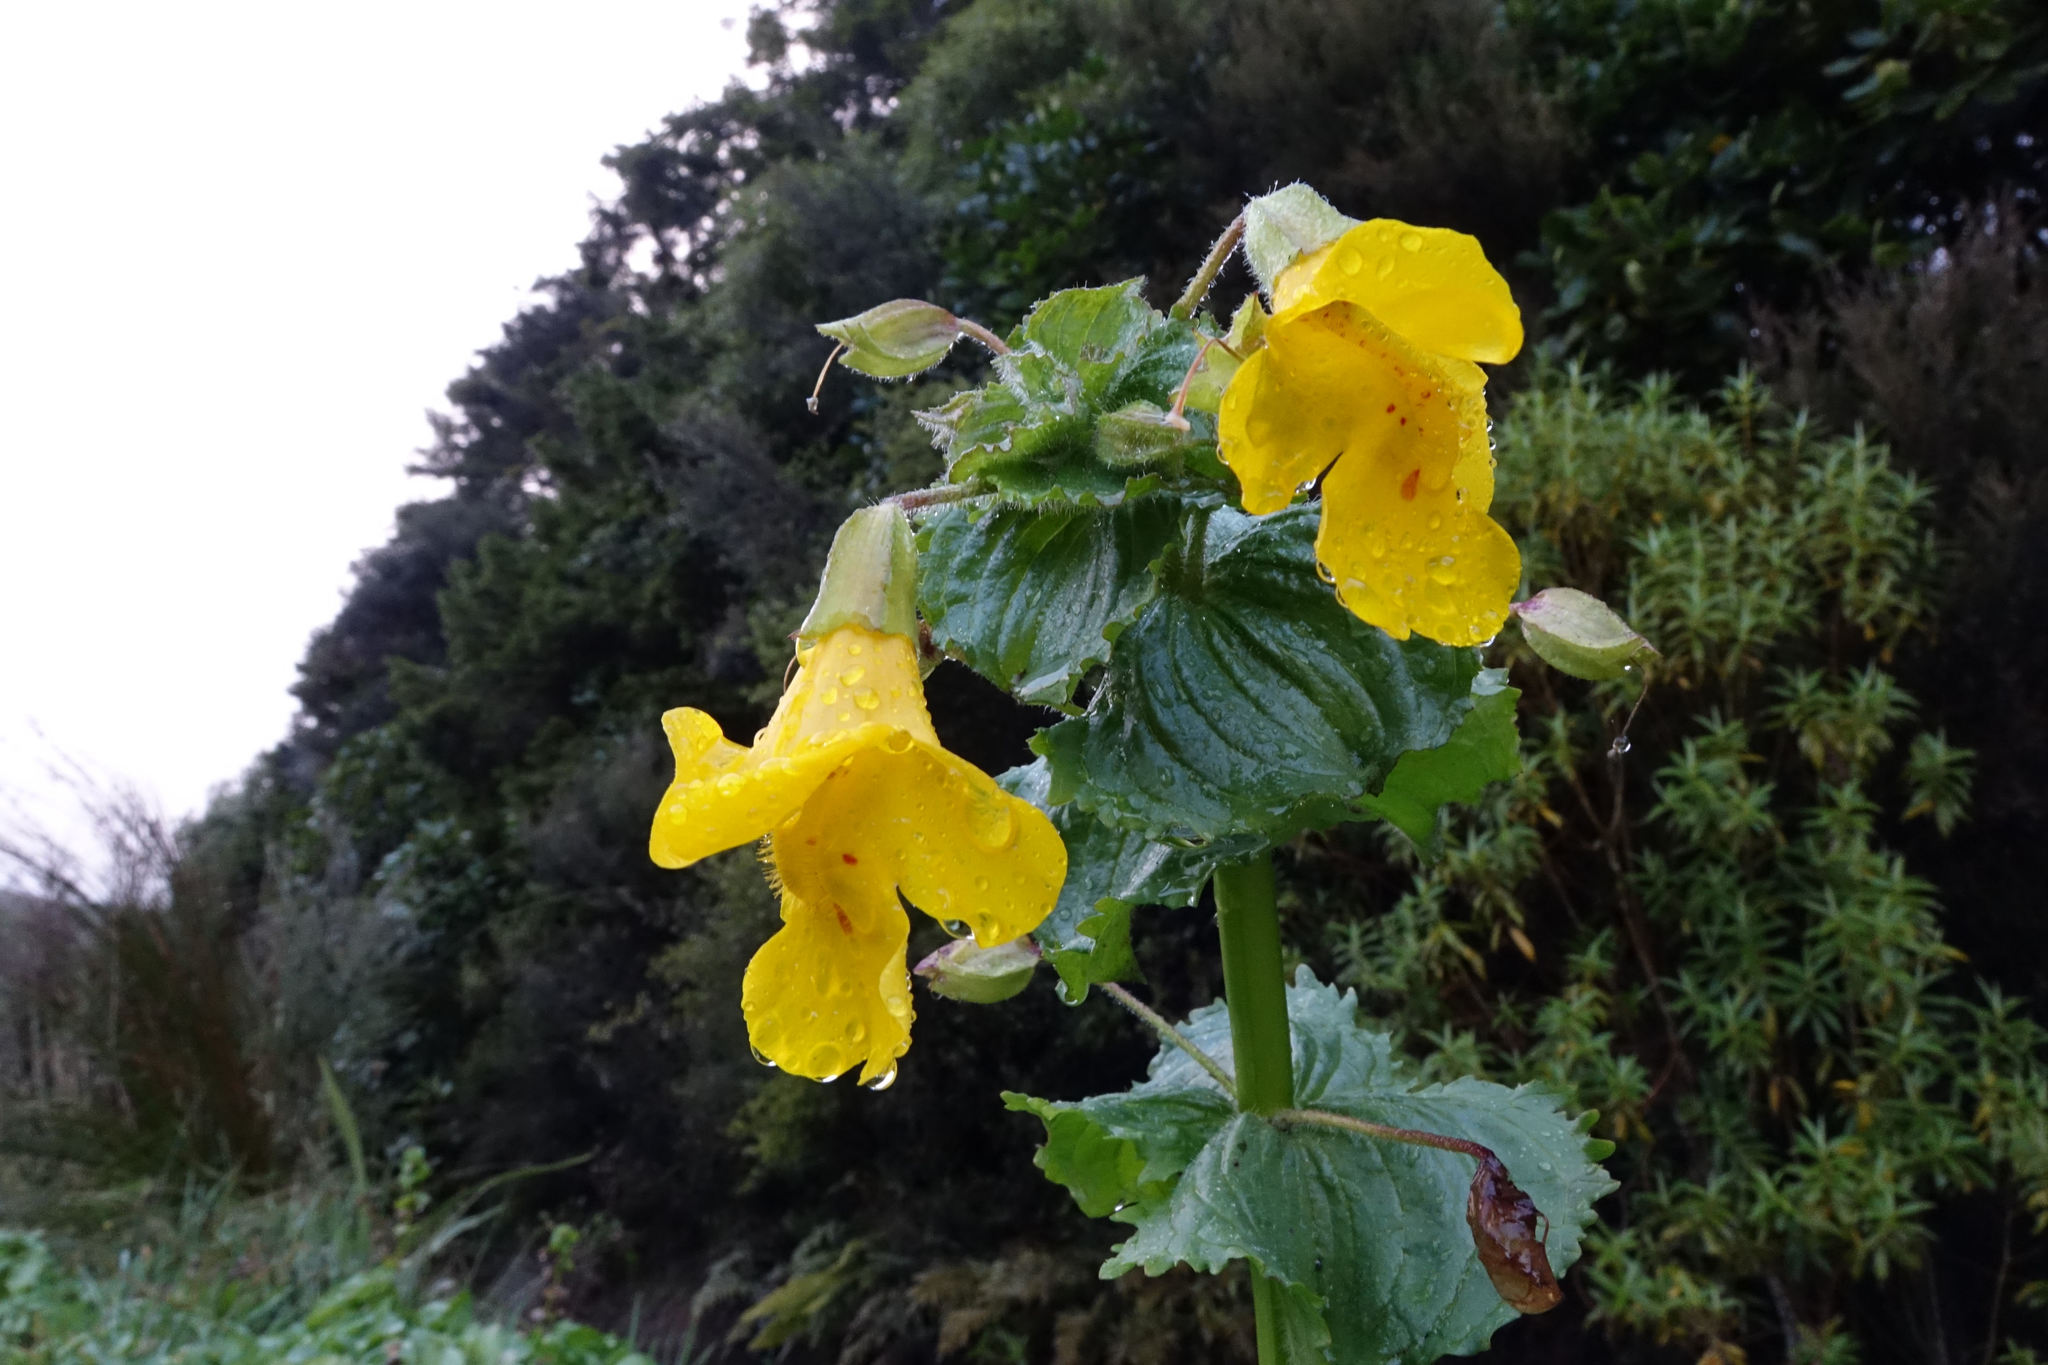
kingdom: Plantae
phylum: Tracheophyta
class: Magnoliopsida
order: Lamiales
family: Phrymaceae
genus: Erythranthe
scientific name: Erythranthe guttata
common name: Monkeyflower
